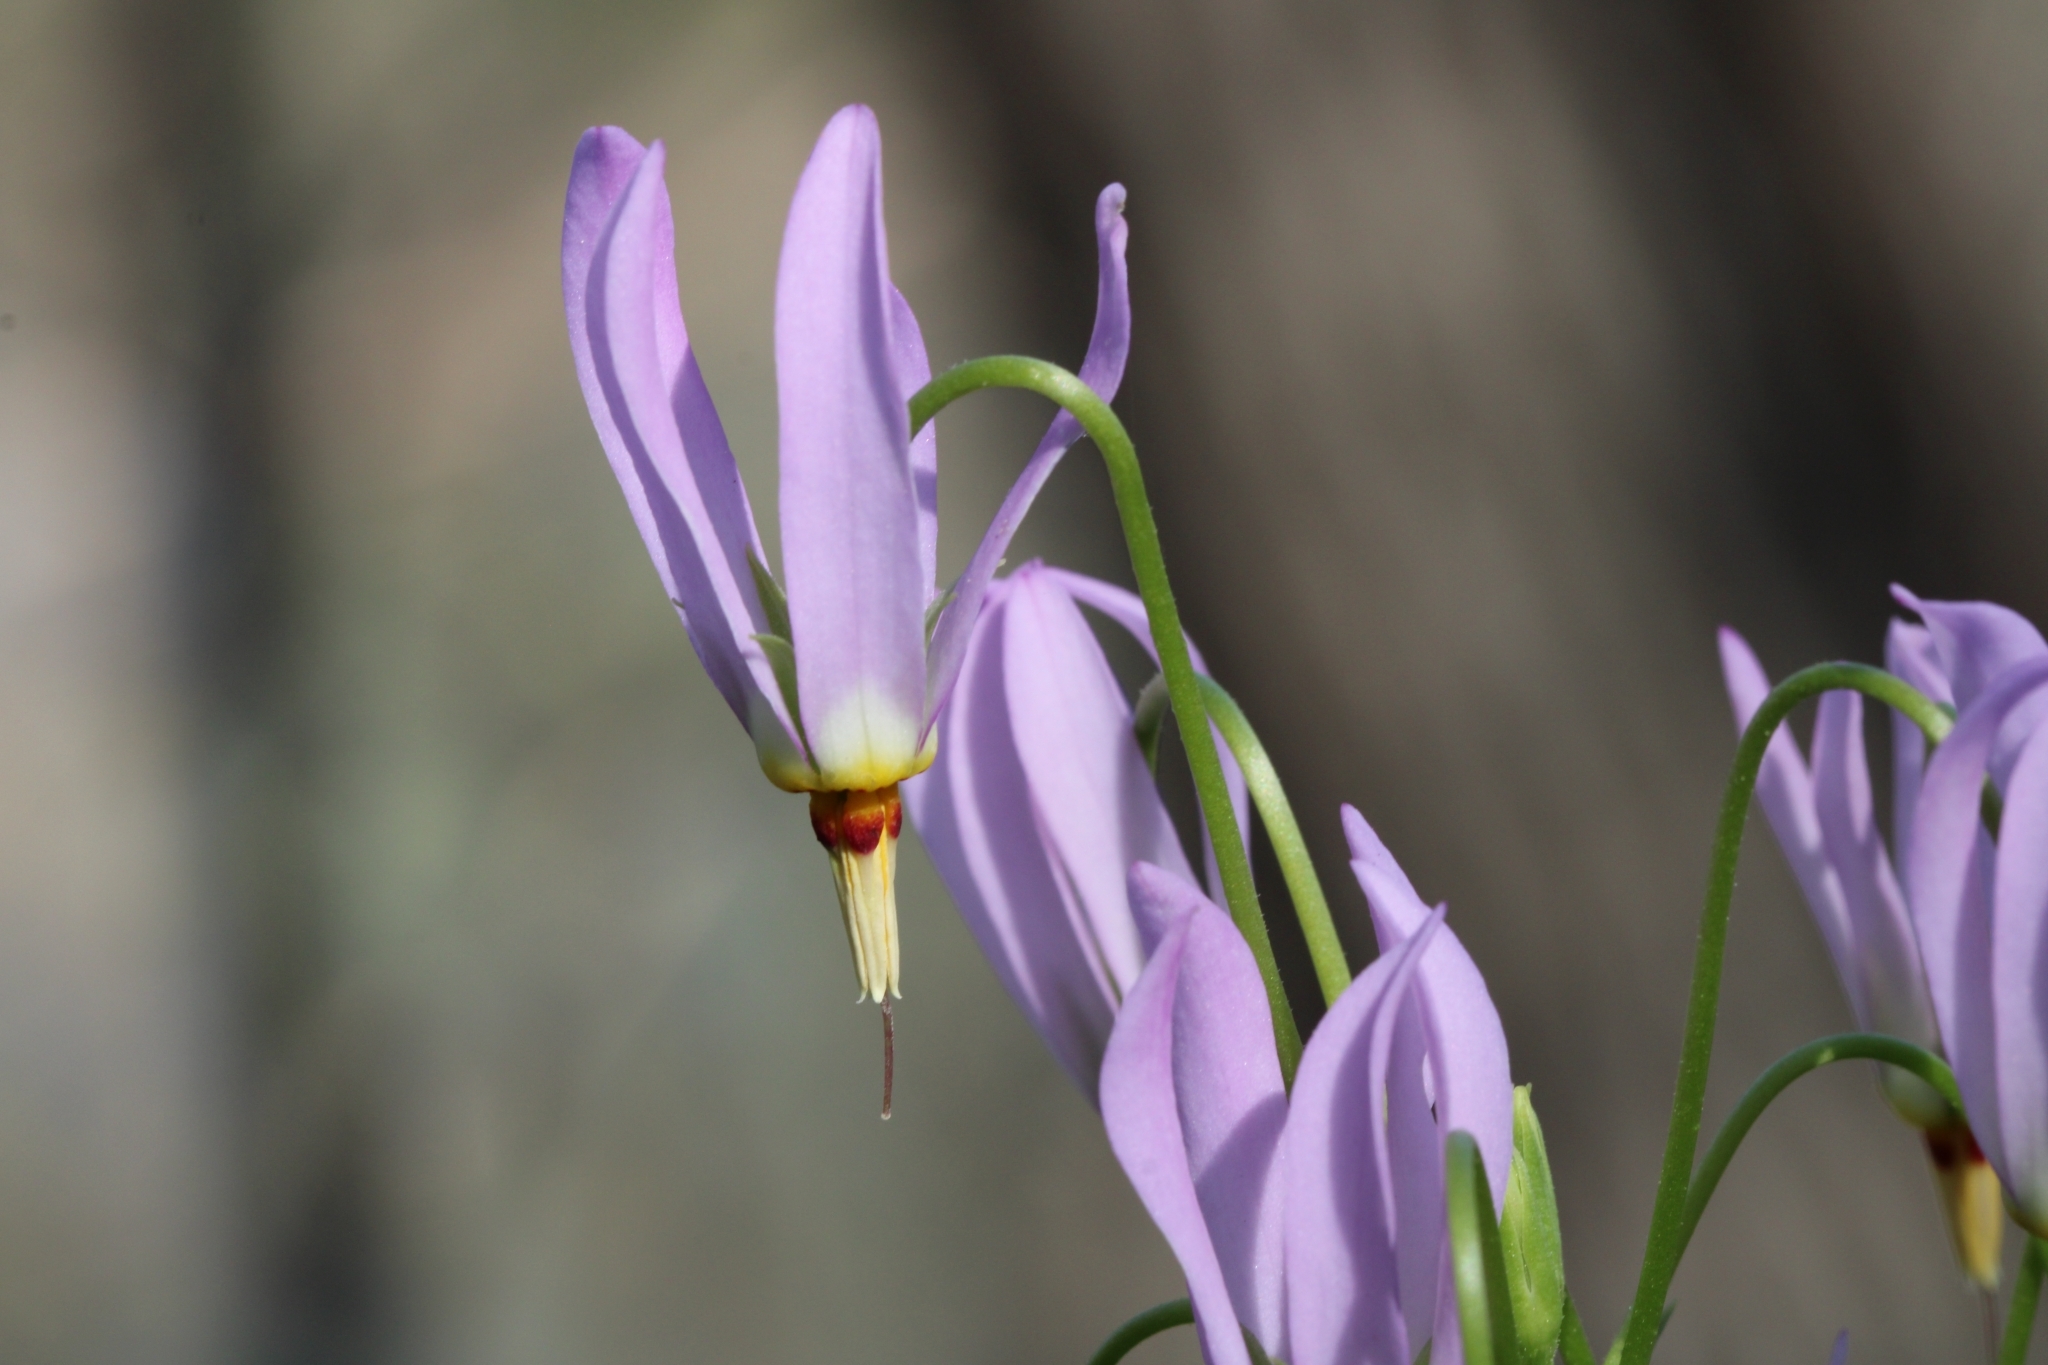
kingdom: Plantae
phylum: Tracheophyta
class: Magnoliopsida
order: Ericales
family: Primulaceae
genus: Dodecatheon
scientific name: Dodecatheon meadia
